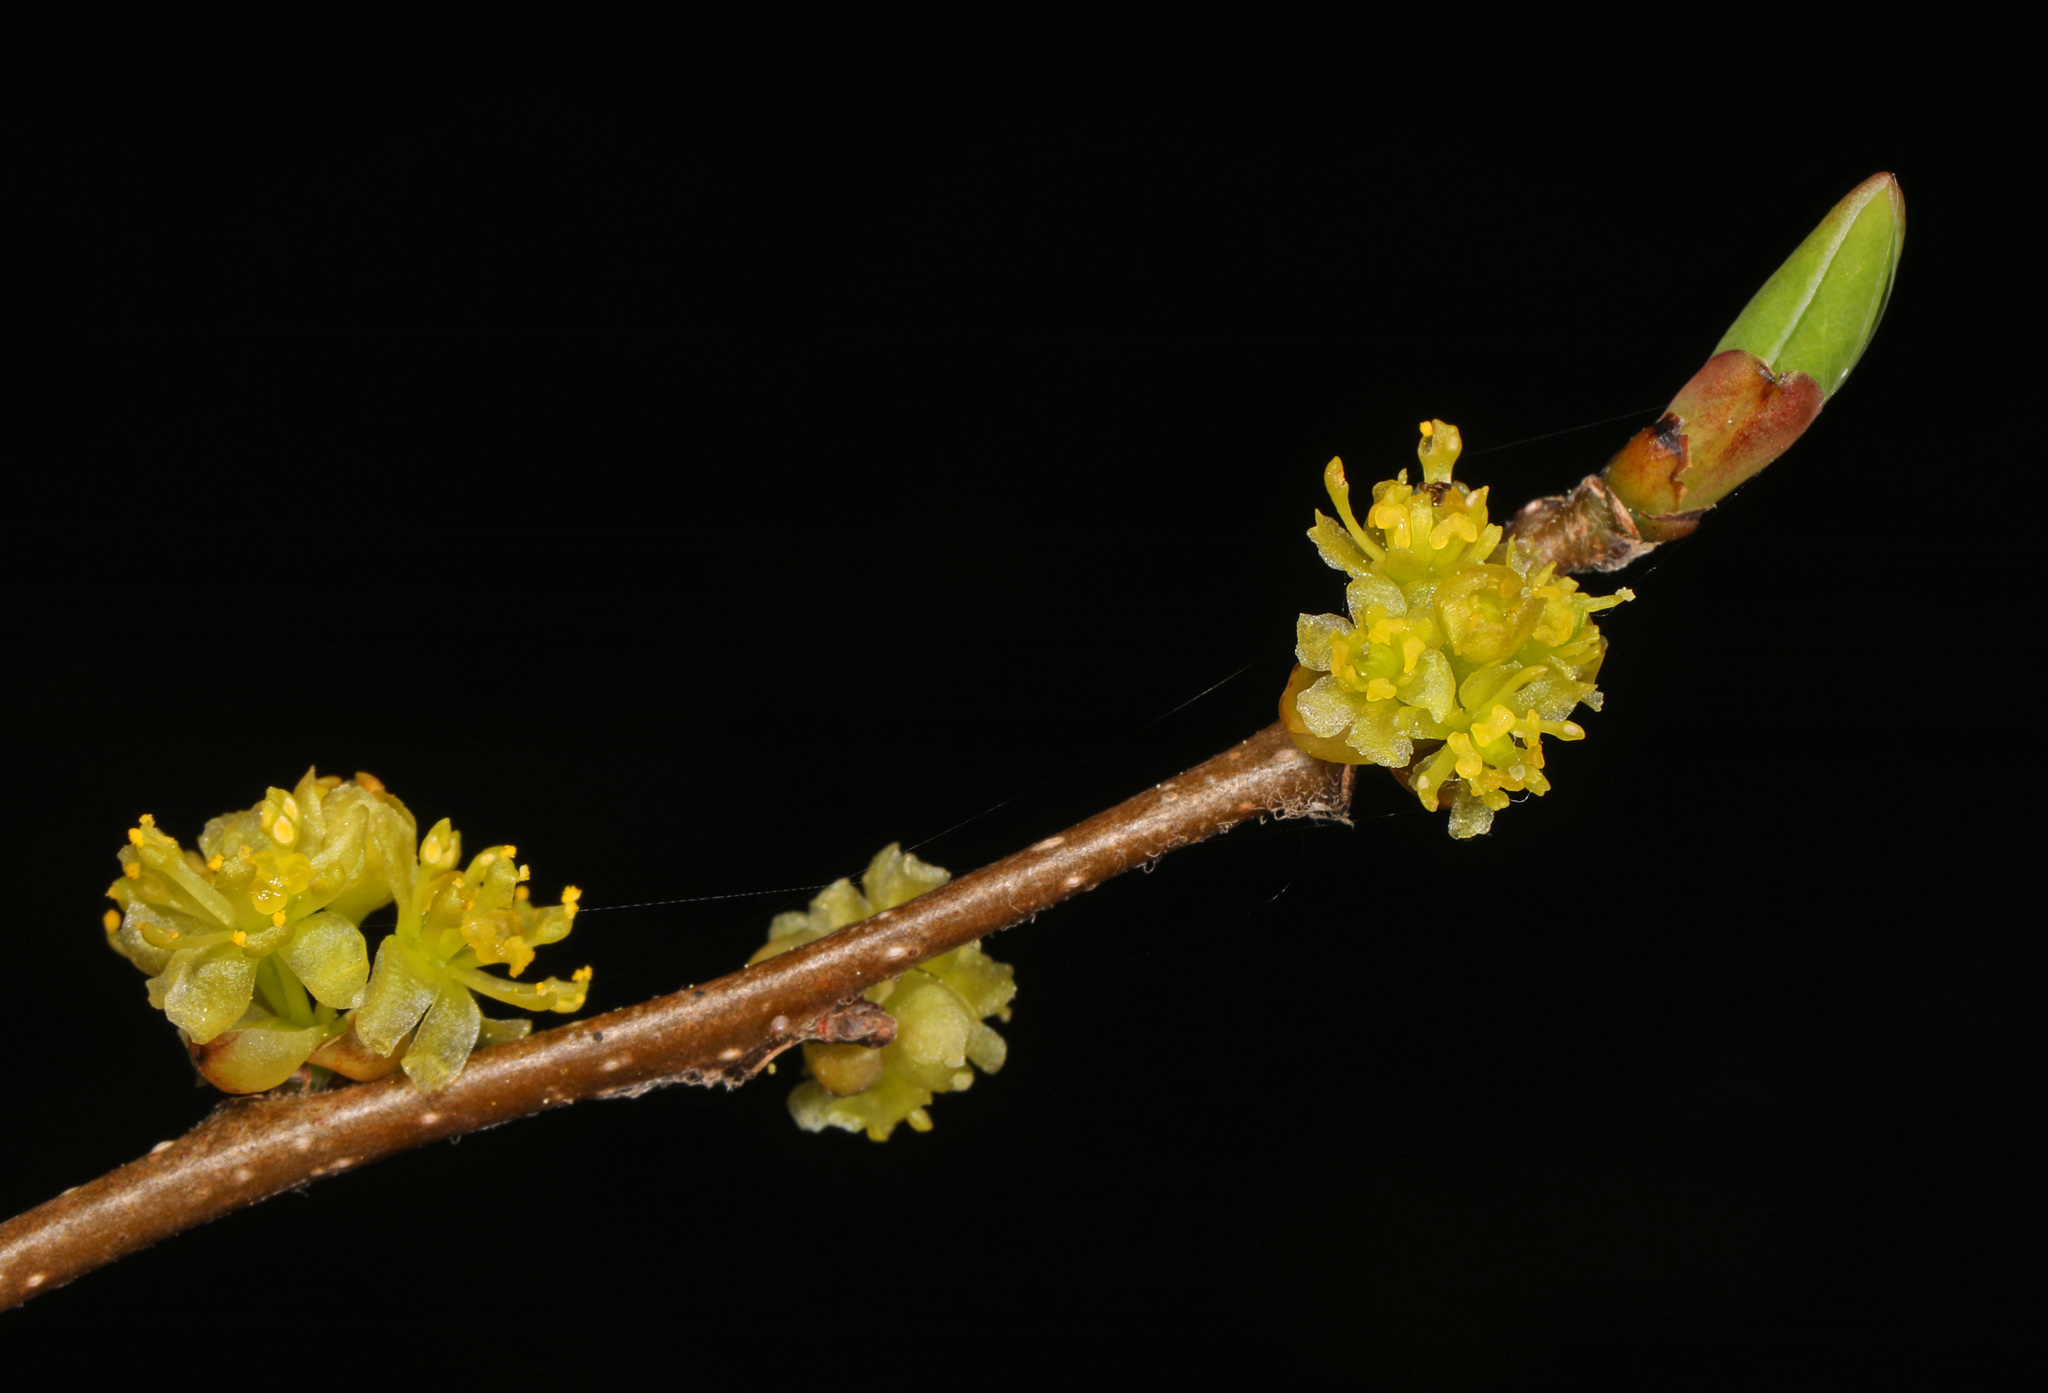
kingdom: Plantae
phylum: Tracheophyta
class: Magnoliopsida
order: Laurales
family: Lauraceae
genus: Lindera
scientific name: Lindera benzoin
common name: Spicebush
